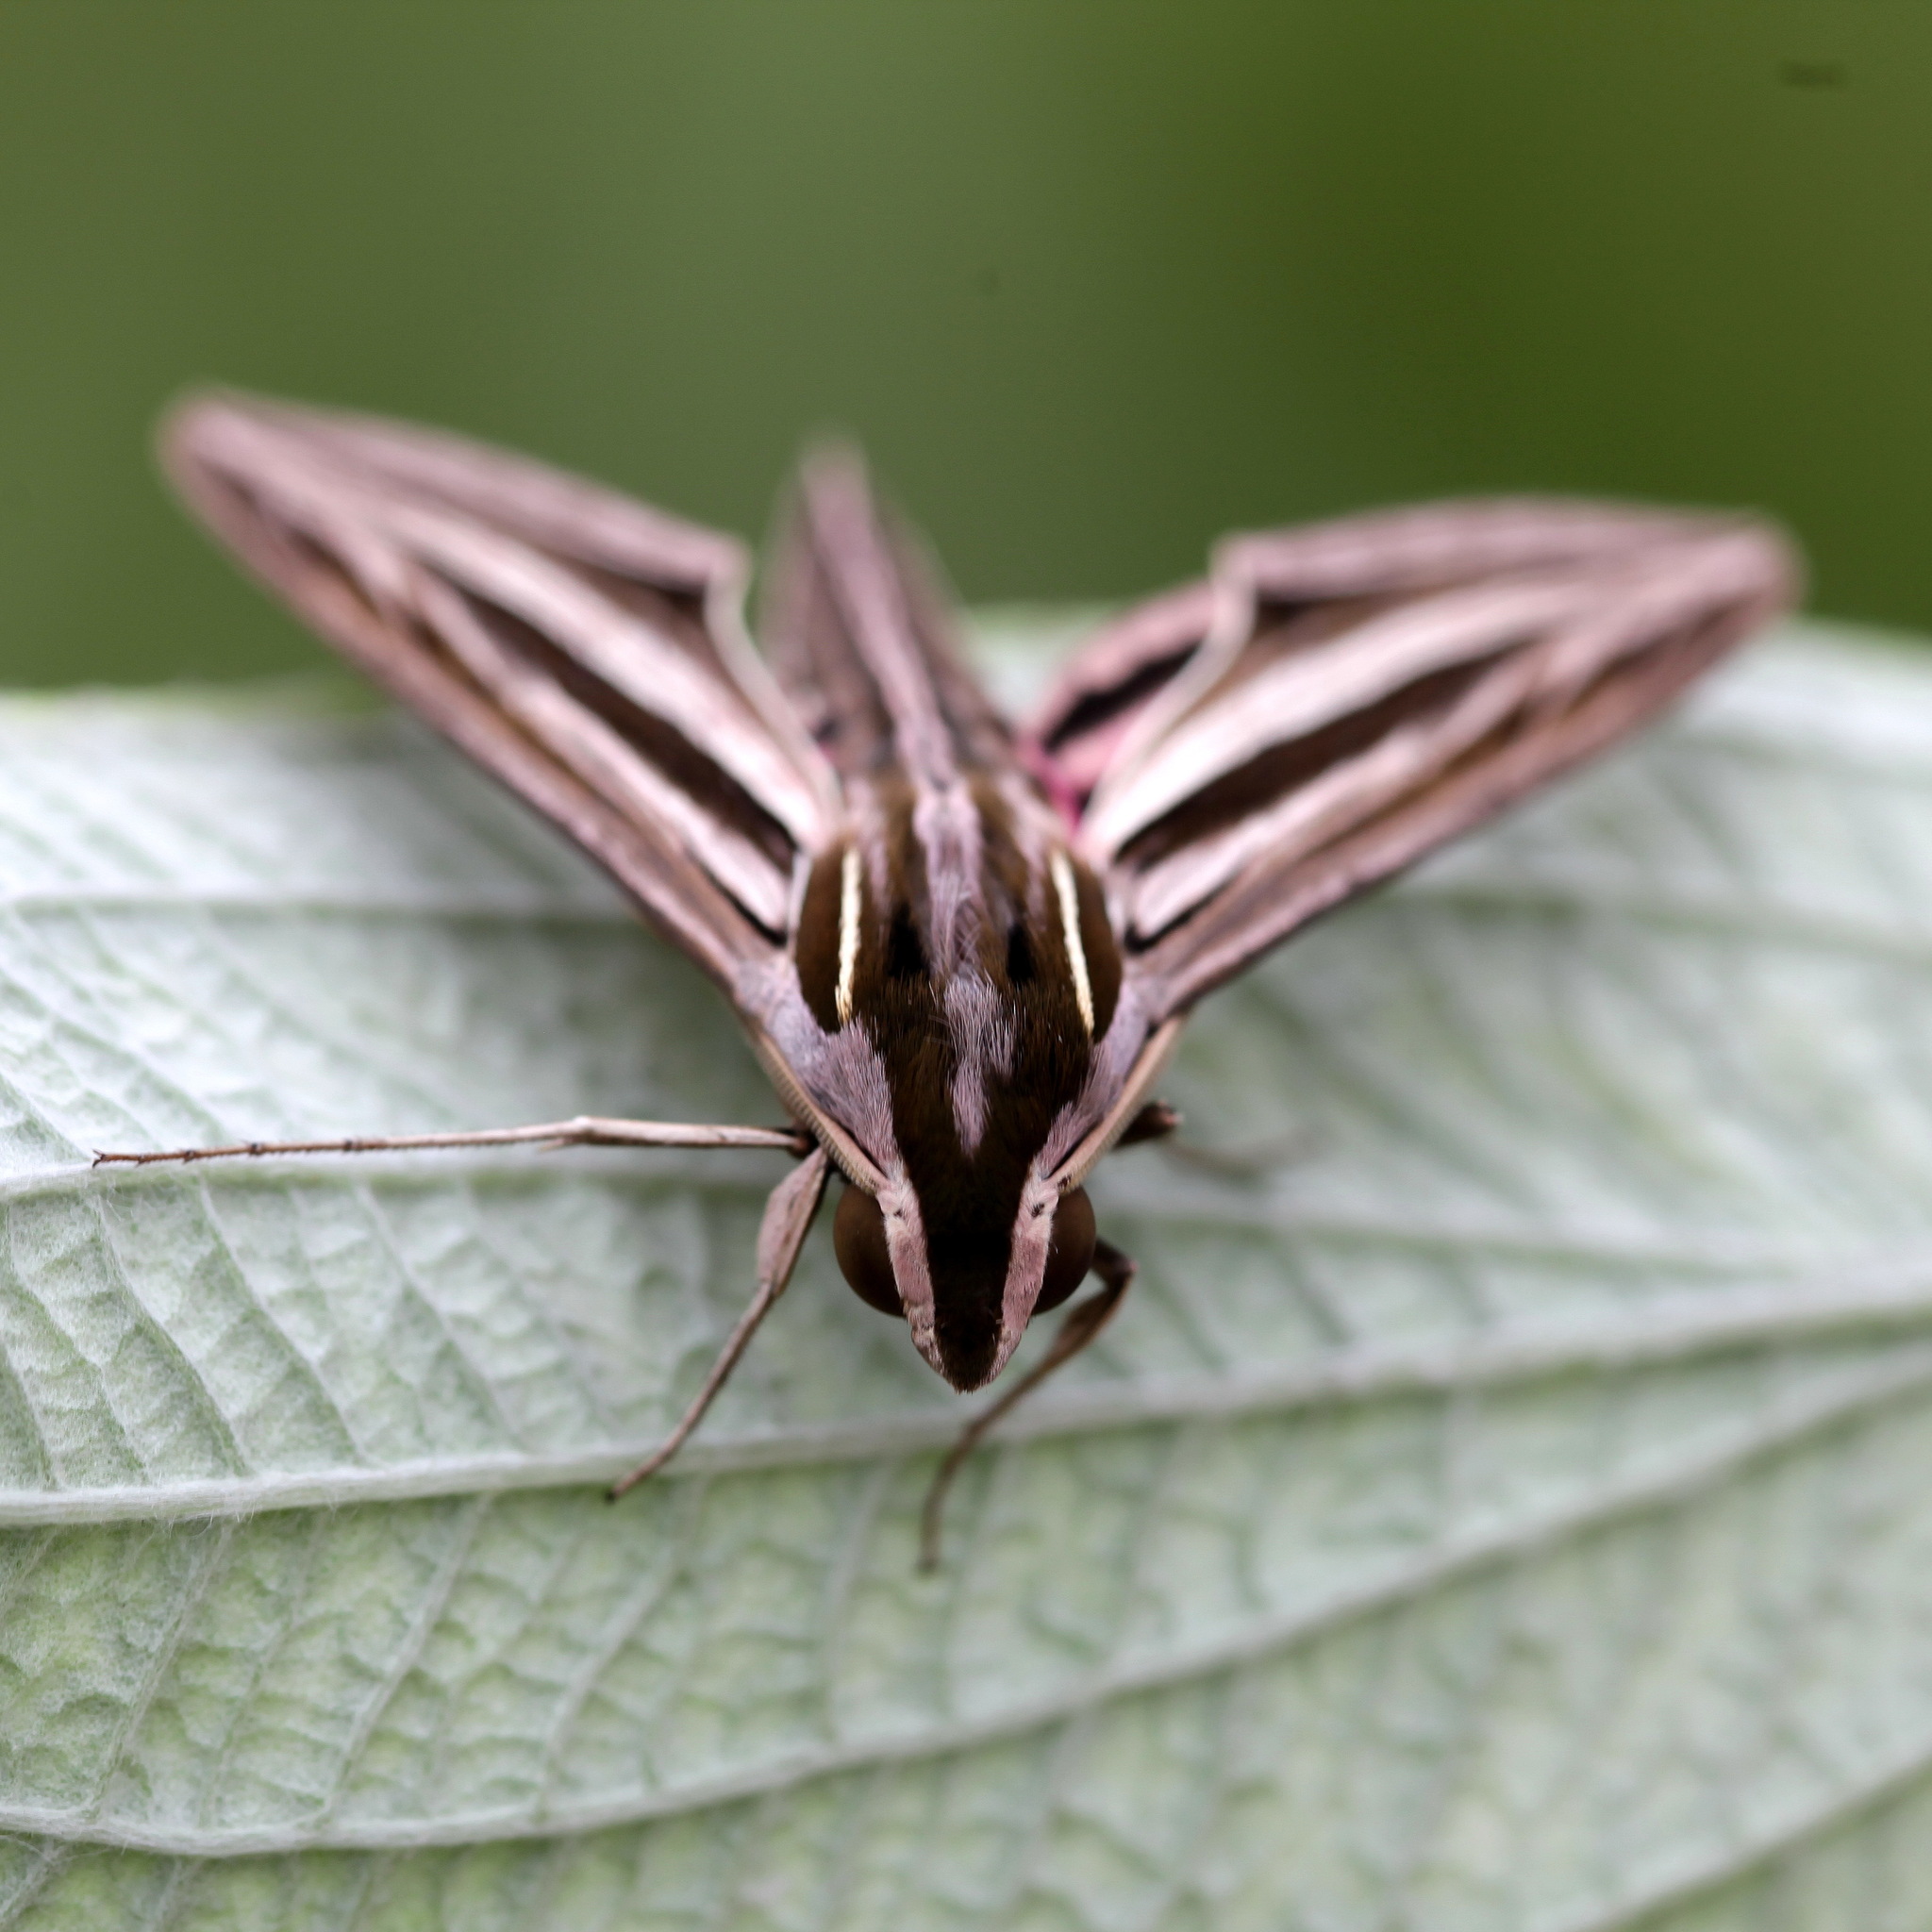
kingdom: Animalia
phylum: Arthropoda
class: Insecta
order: Lepidoptera
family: Sphingidae
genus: Hippotion
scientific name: Hippotion osiris
